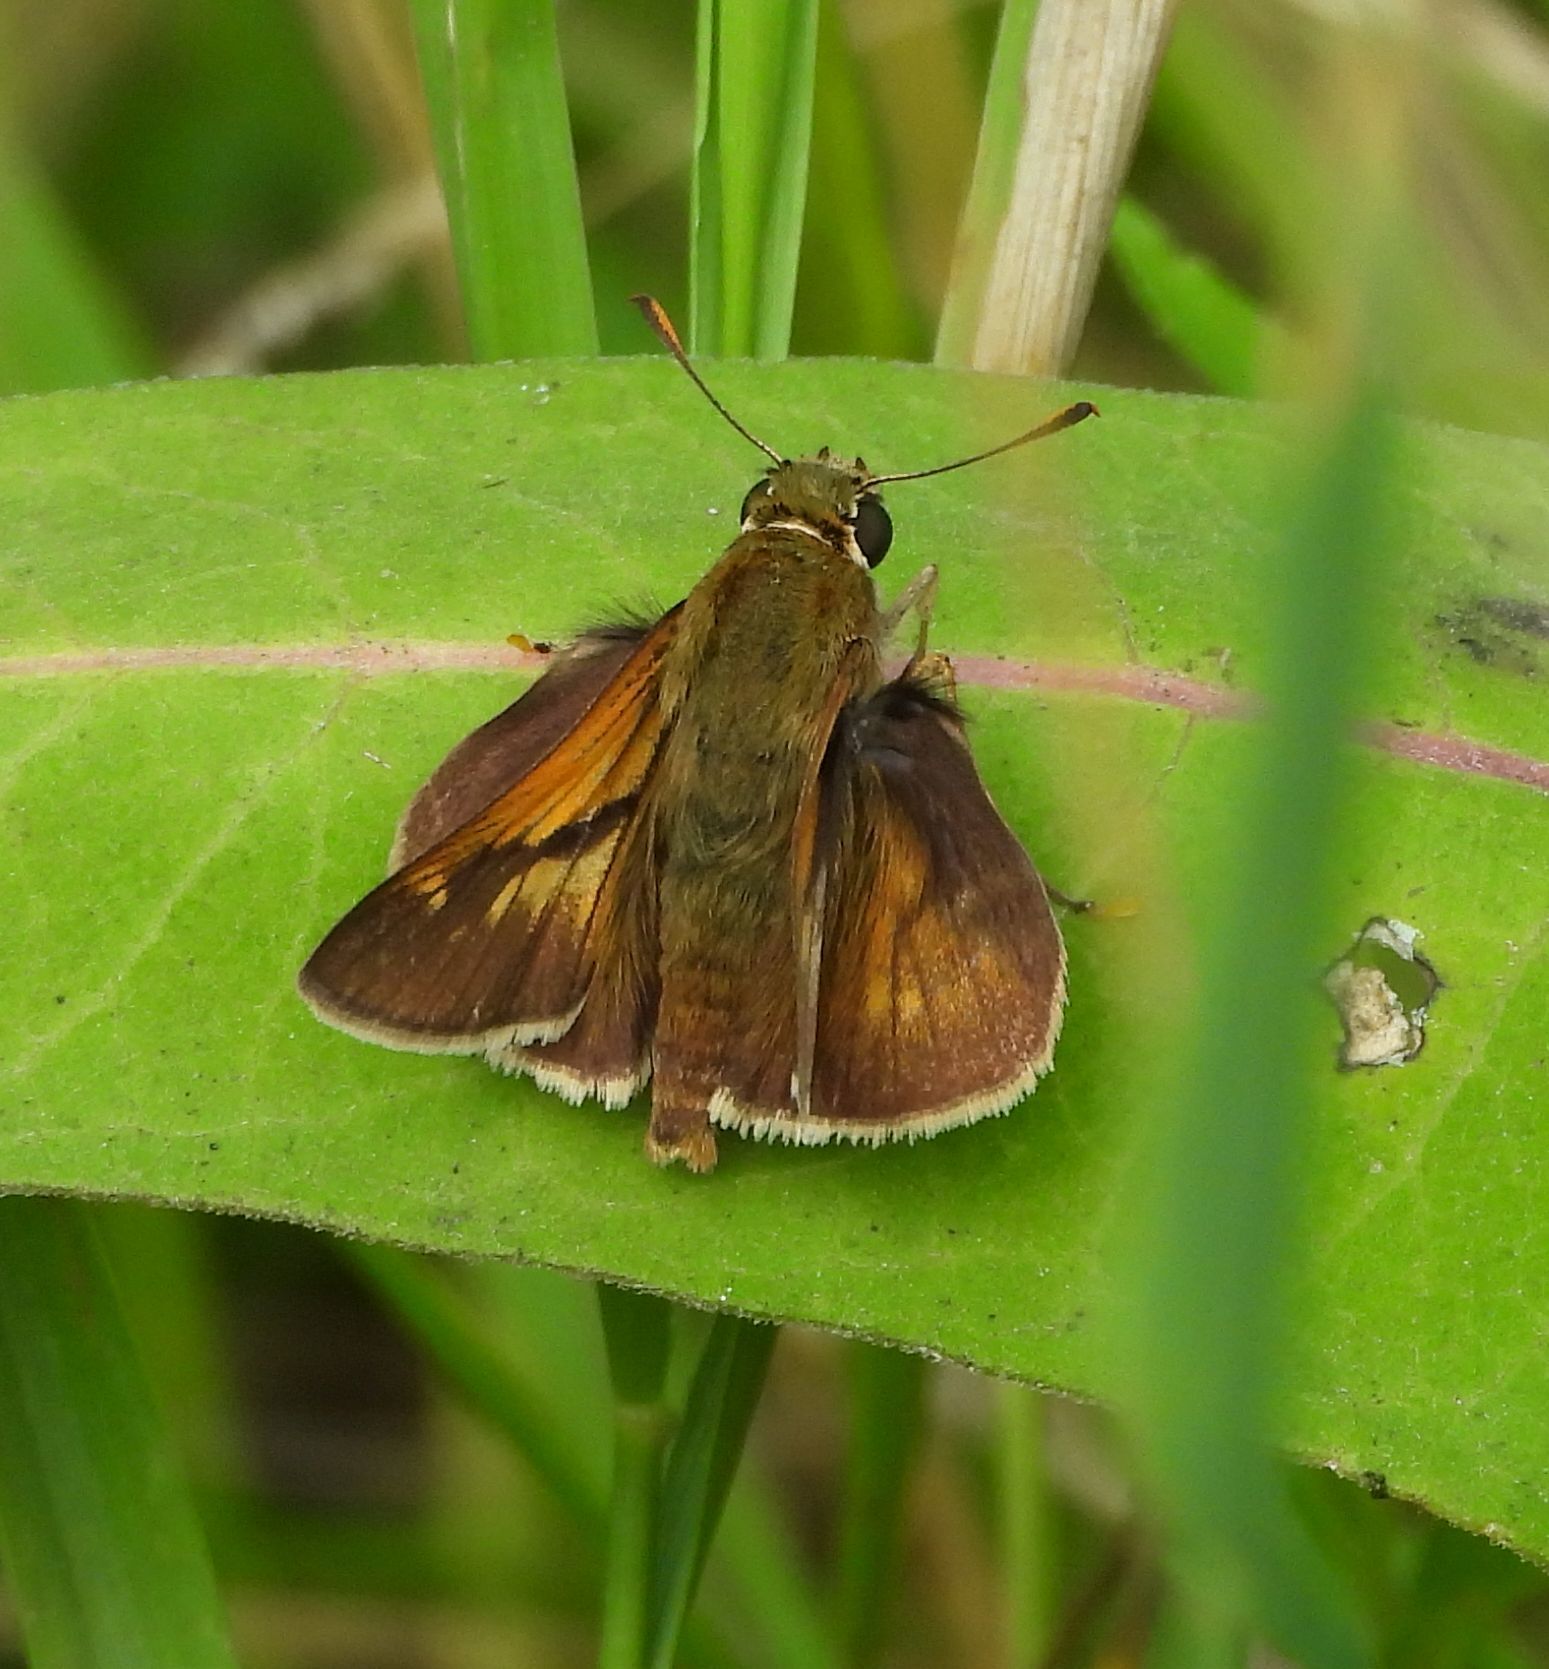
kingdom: Animalia
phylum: Arthropoda
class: Insecta
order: Lepidoptera
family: Hesperiidae
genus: Polites
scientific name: Polites origenes
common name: Crossline skipper
